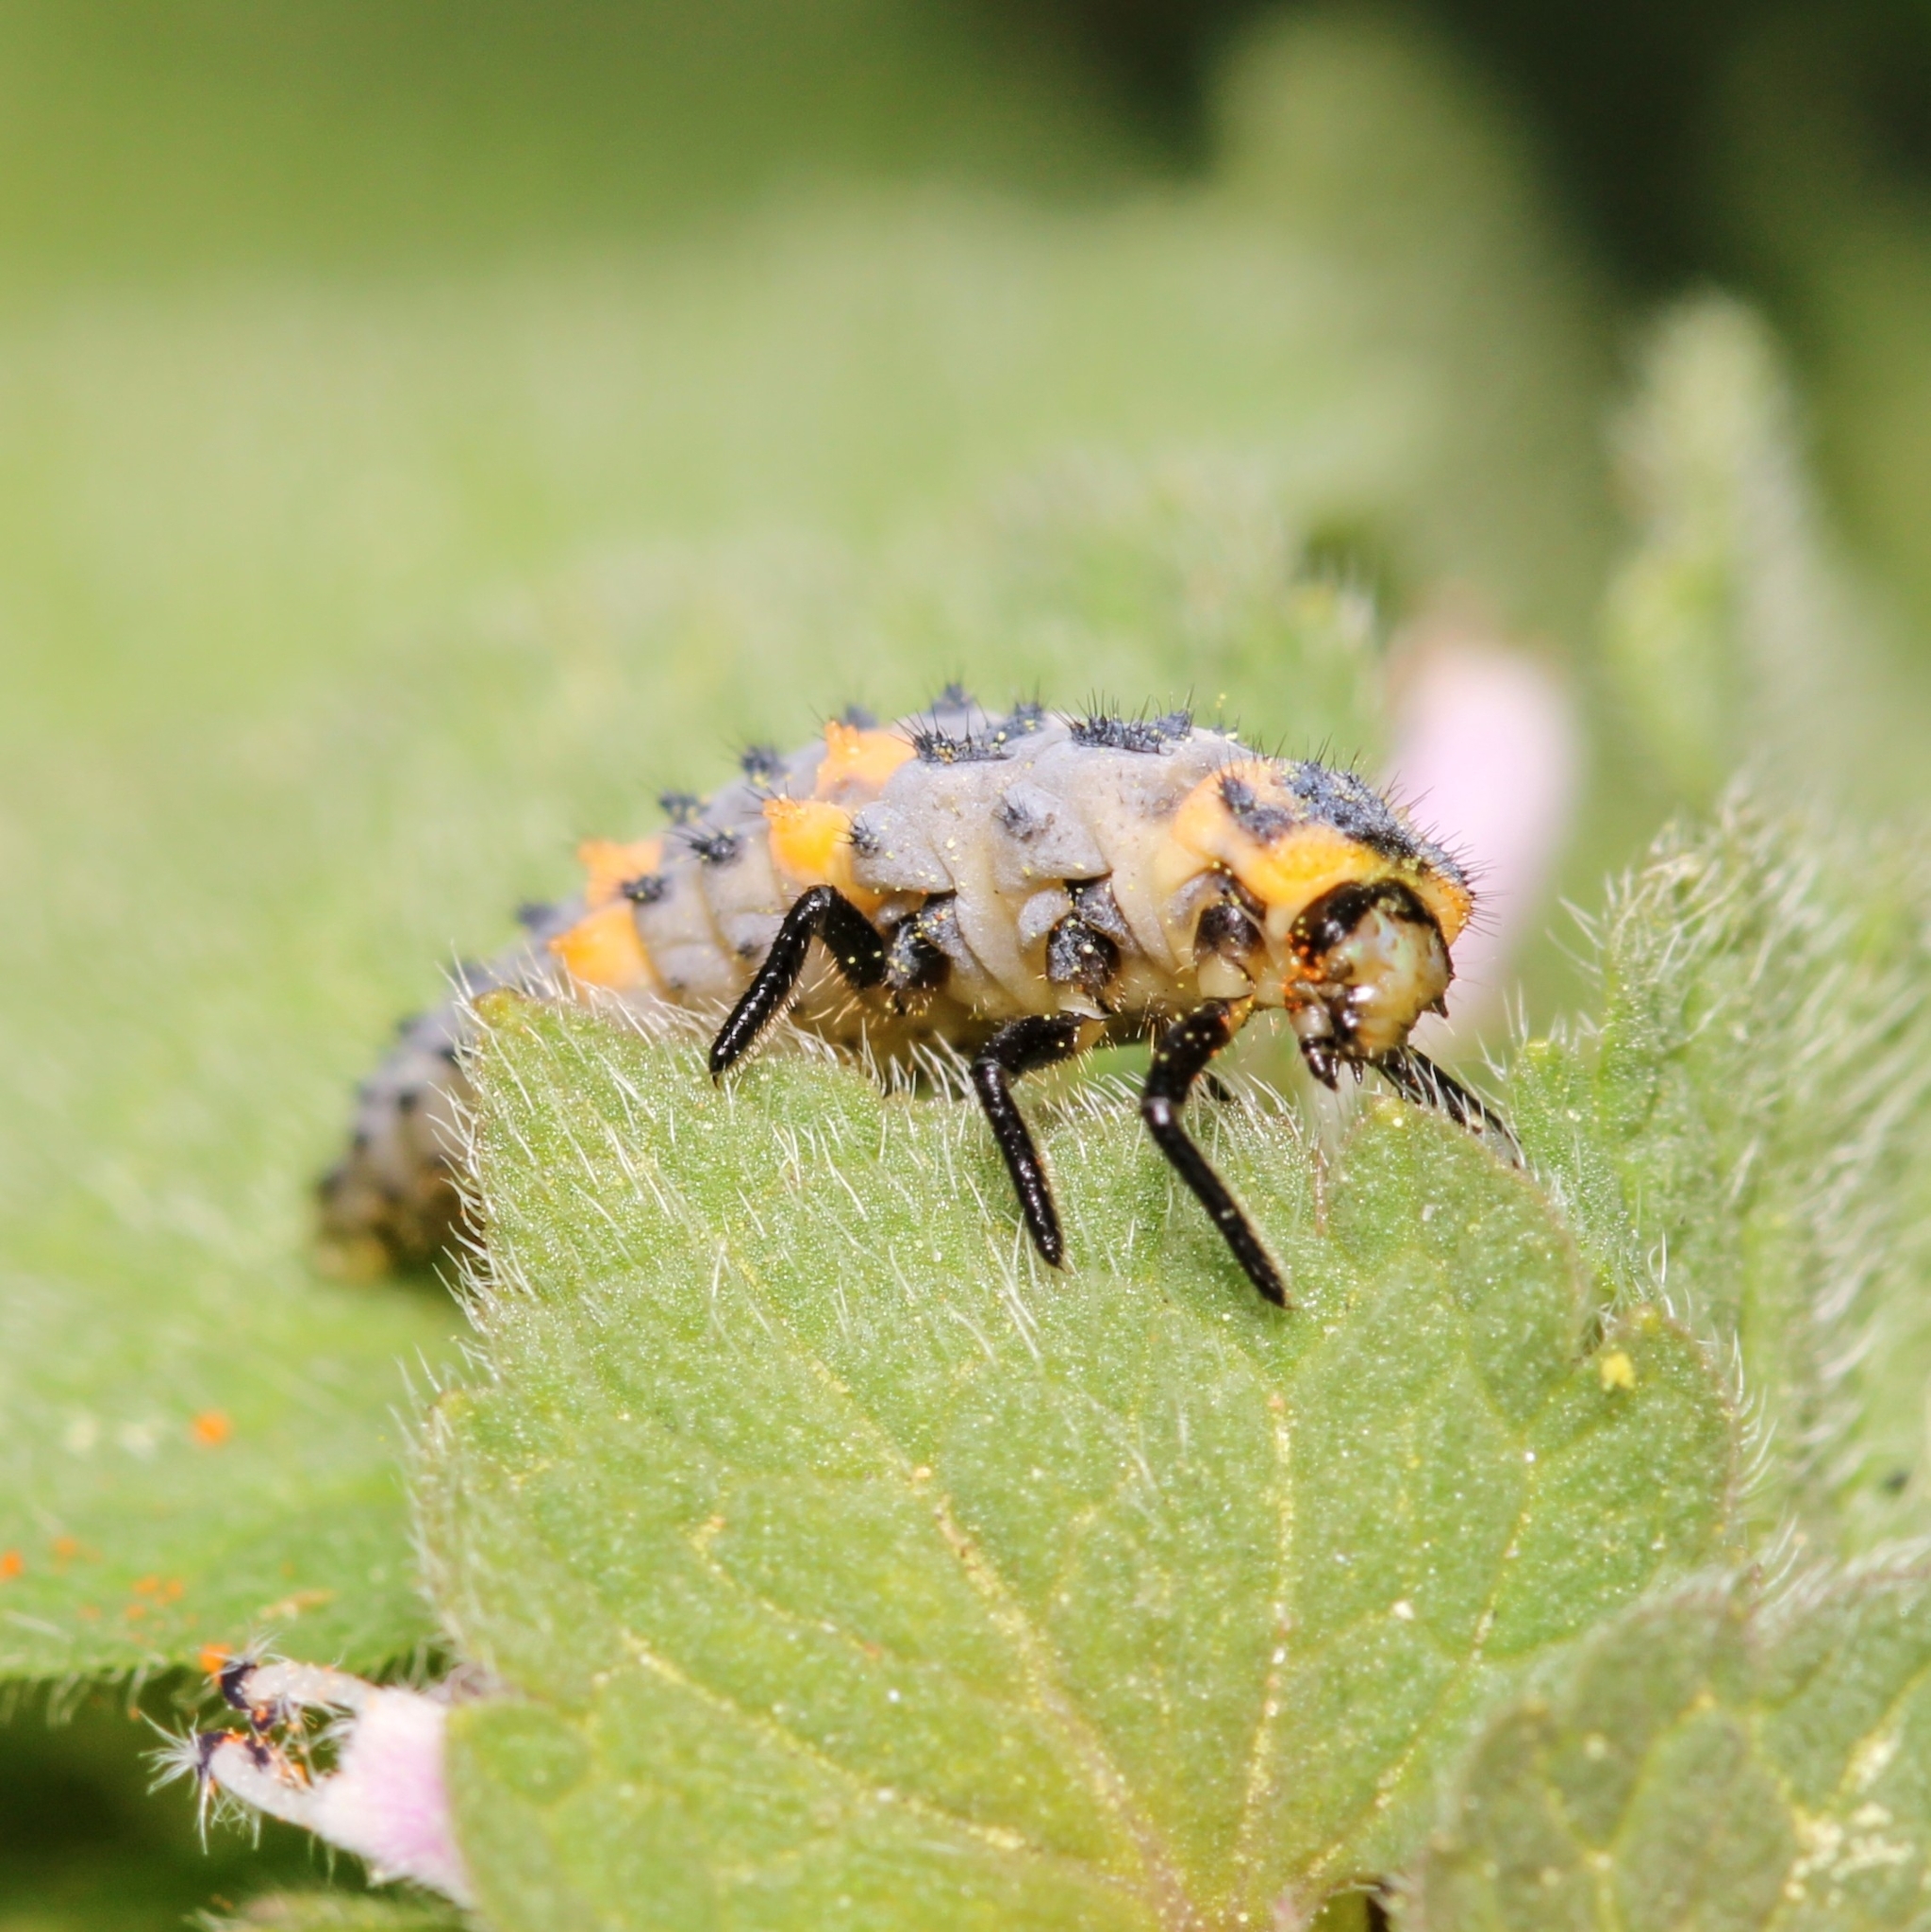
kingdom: Animalia
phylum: Arthropoda
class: Insecta
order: Coleoptera
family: Coccinellidae
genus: Coccinella
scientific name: Coccinella septempunctata
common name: Sevenspotted lady beetle
